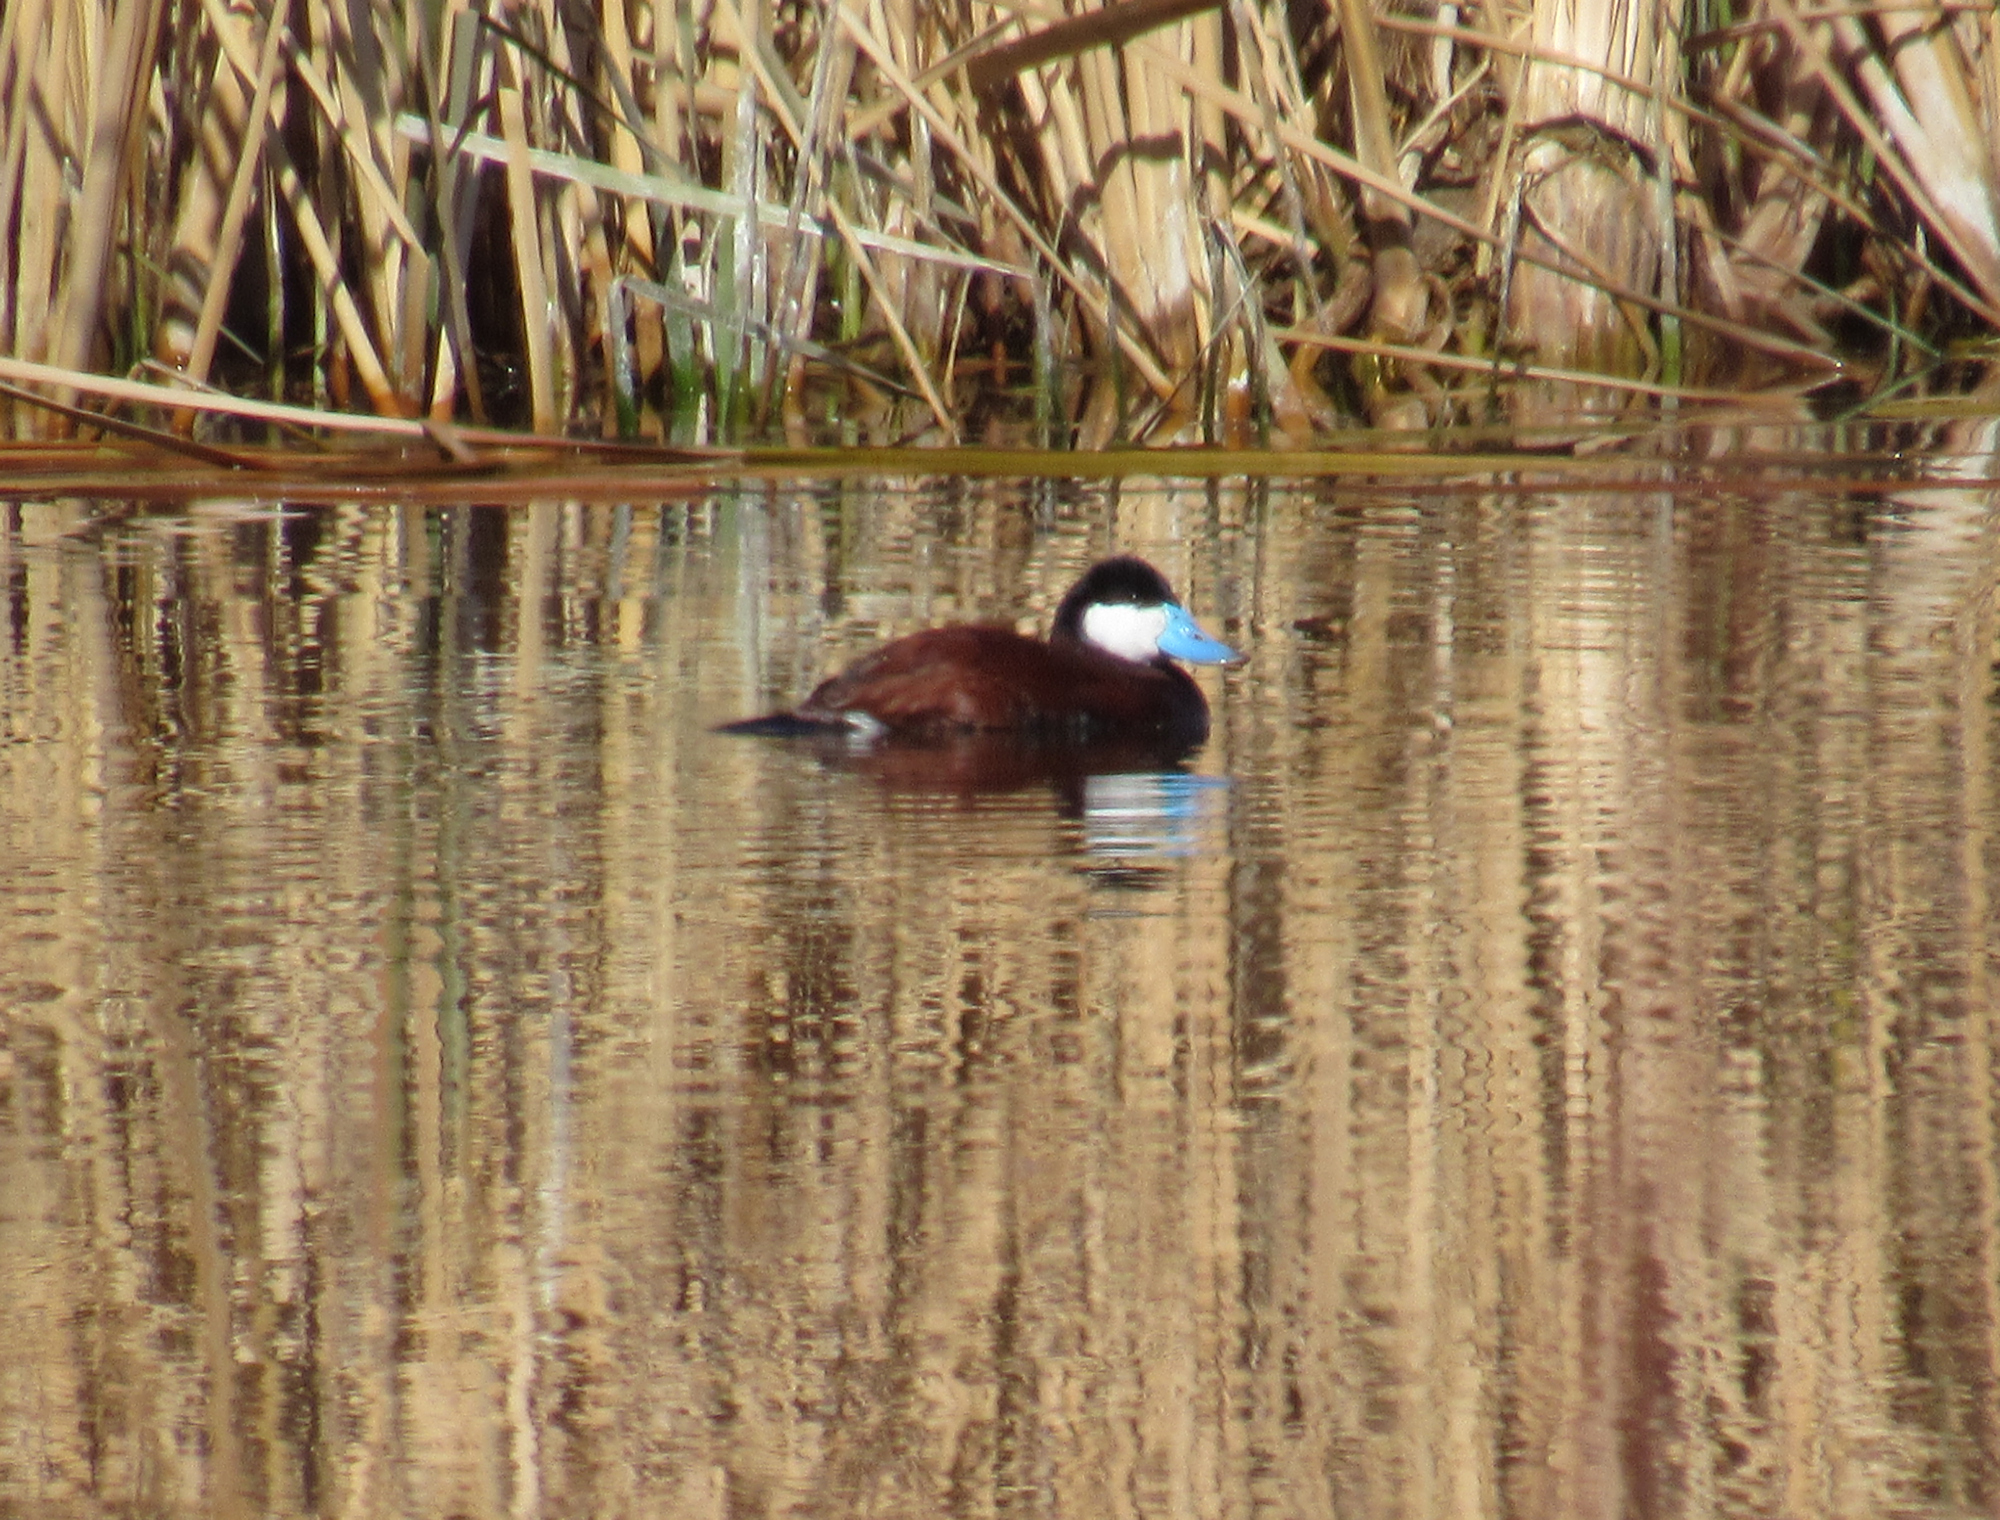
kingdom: Animalia
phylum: Chordata
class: Aves
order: Anseriformes
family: Anatidae
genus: Oxyura
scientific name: Oxyura jamaicensis
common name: Ruddy duck
